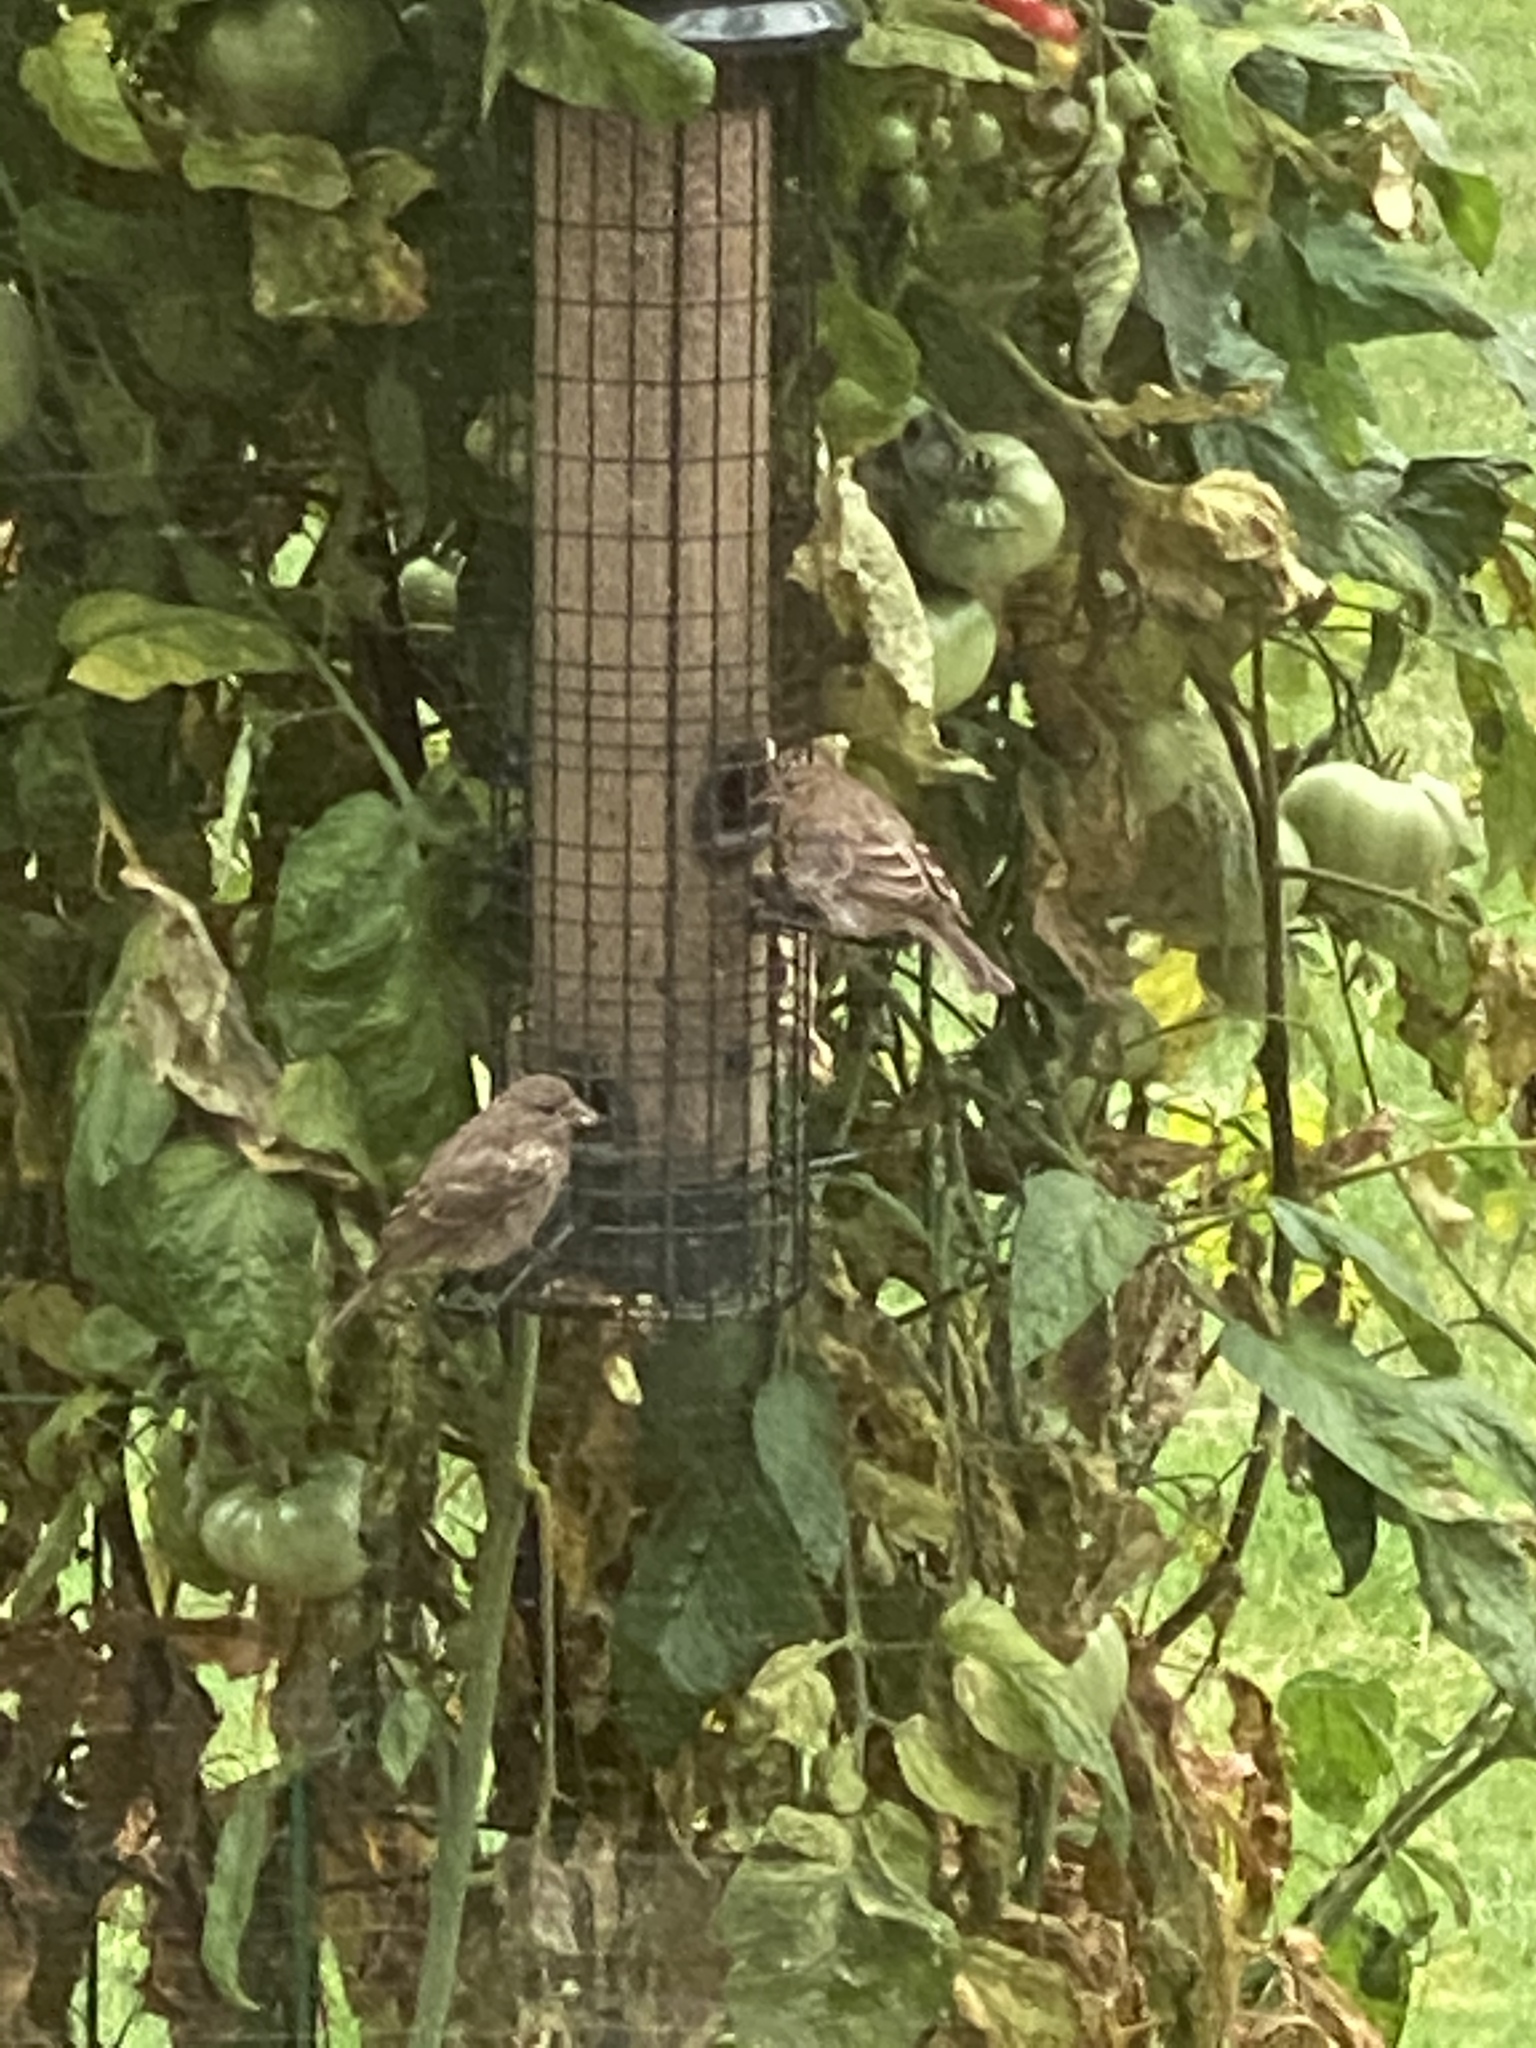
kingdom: Animalia
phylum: Chordata
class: Aves
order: Passeriformes
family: Fringillidae
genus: Haemorhous
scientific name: Haemorhous mexicanus
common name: House finch
